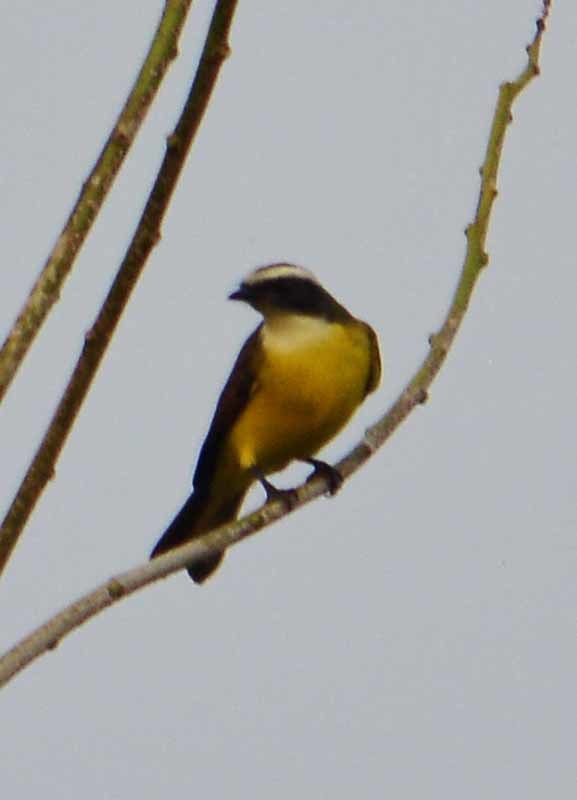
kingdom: Animalia
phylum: Chordata
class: Aves
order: Passeriformes
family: Tyrannidae
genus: Myiozetetes
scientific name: Myiozetetes similis
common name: Social flycatcher
